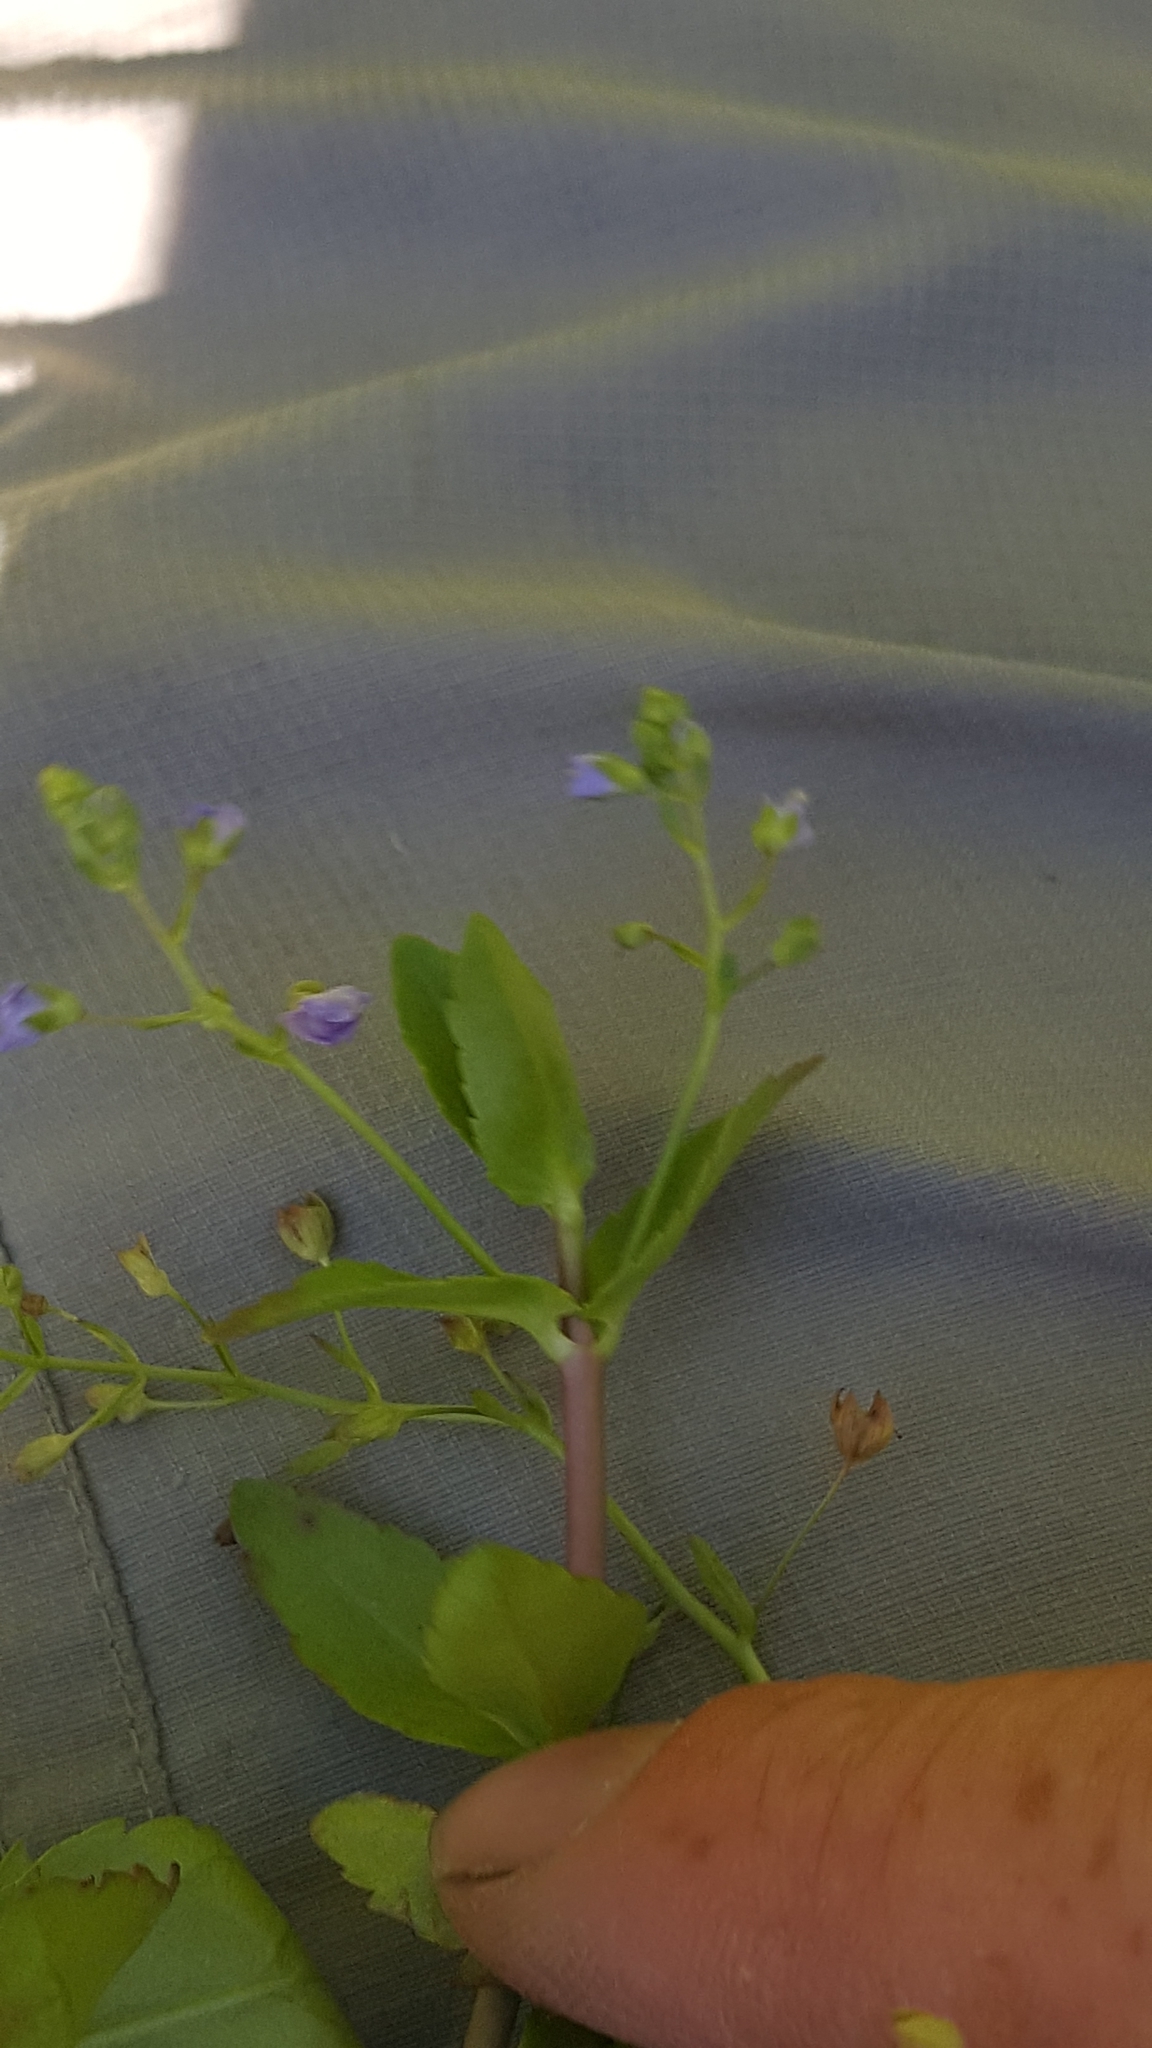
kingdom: Plantae
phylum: Tracheophyta
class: Magnoliopsida
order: Lamiales
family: Plantaginaceae
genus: Veronica
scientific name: Veronica americana
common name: American brooklime
